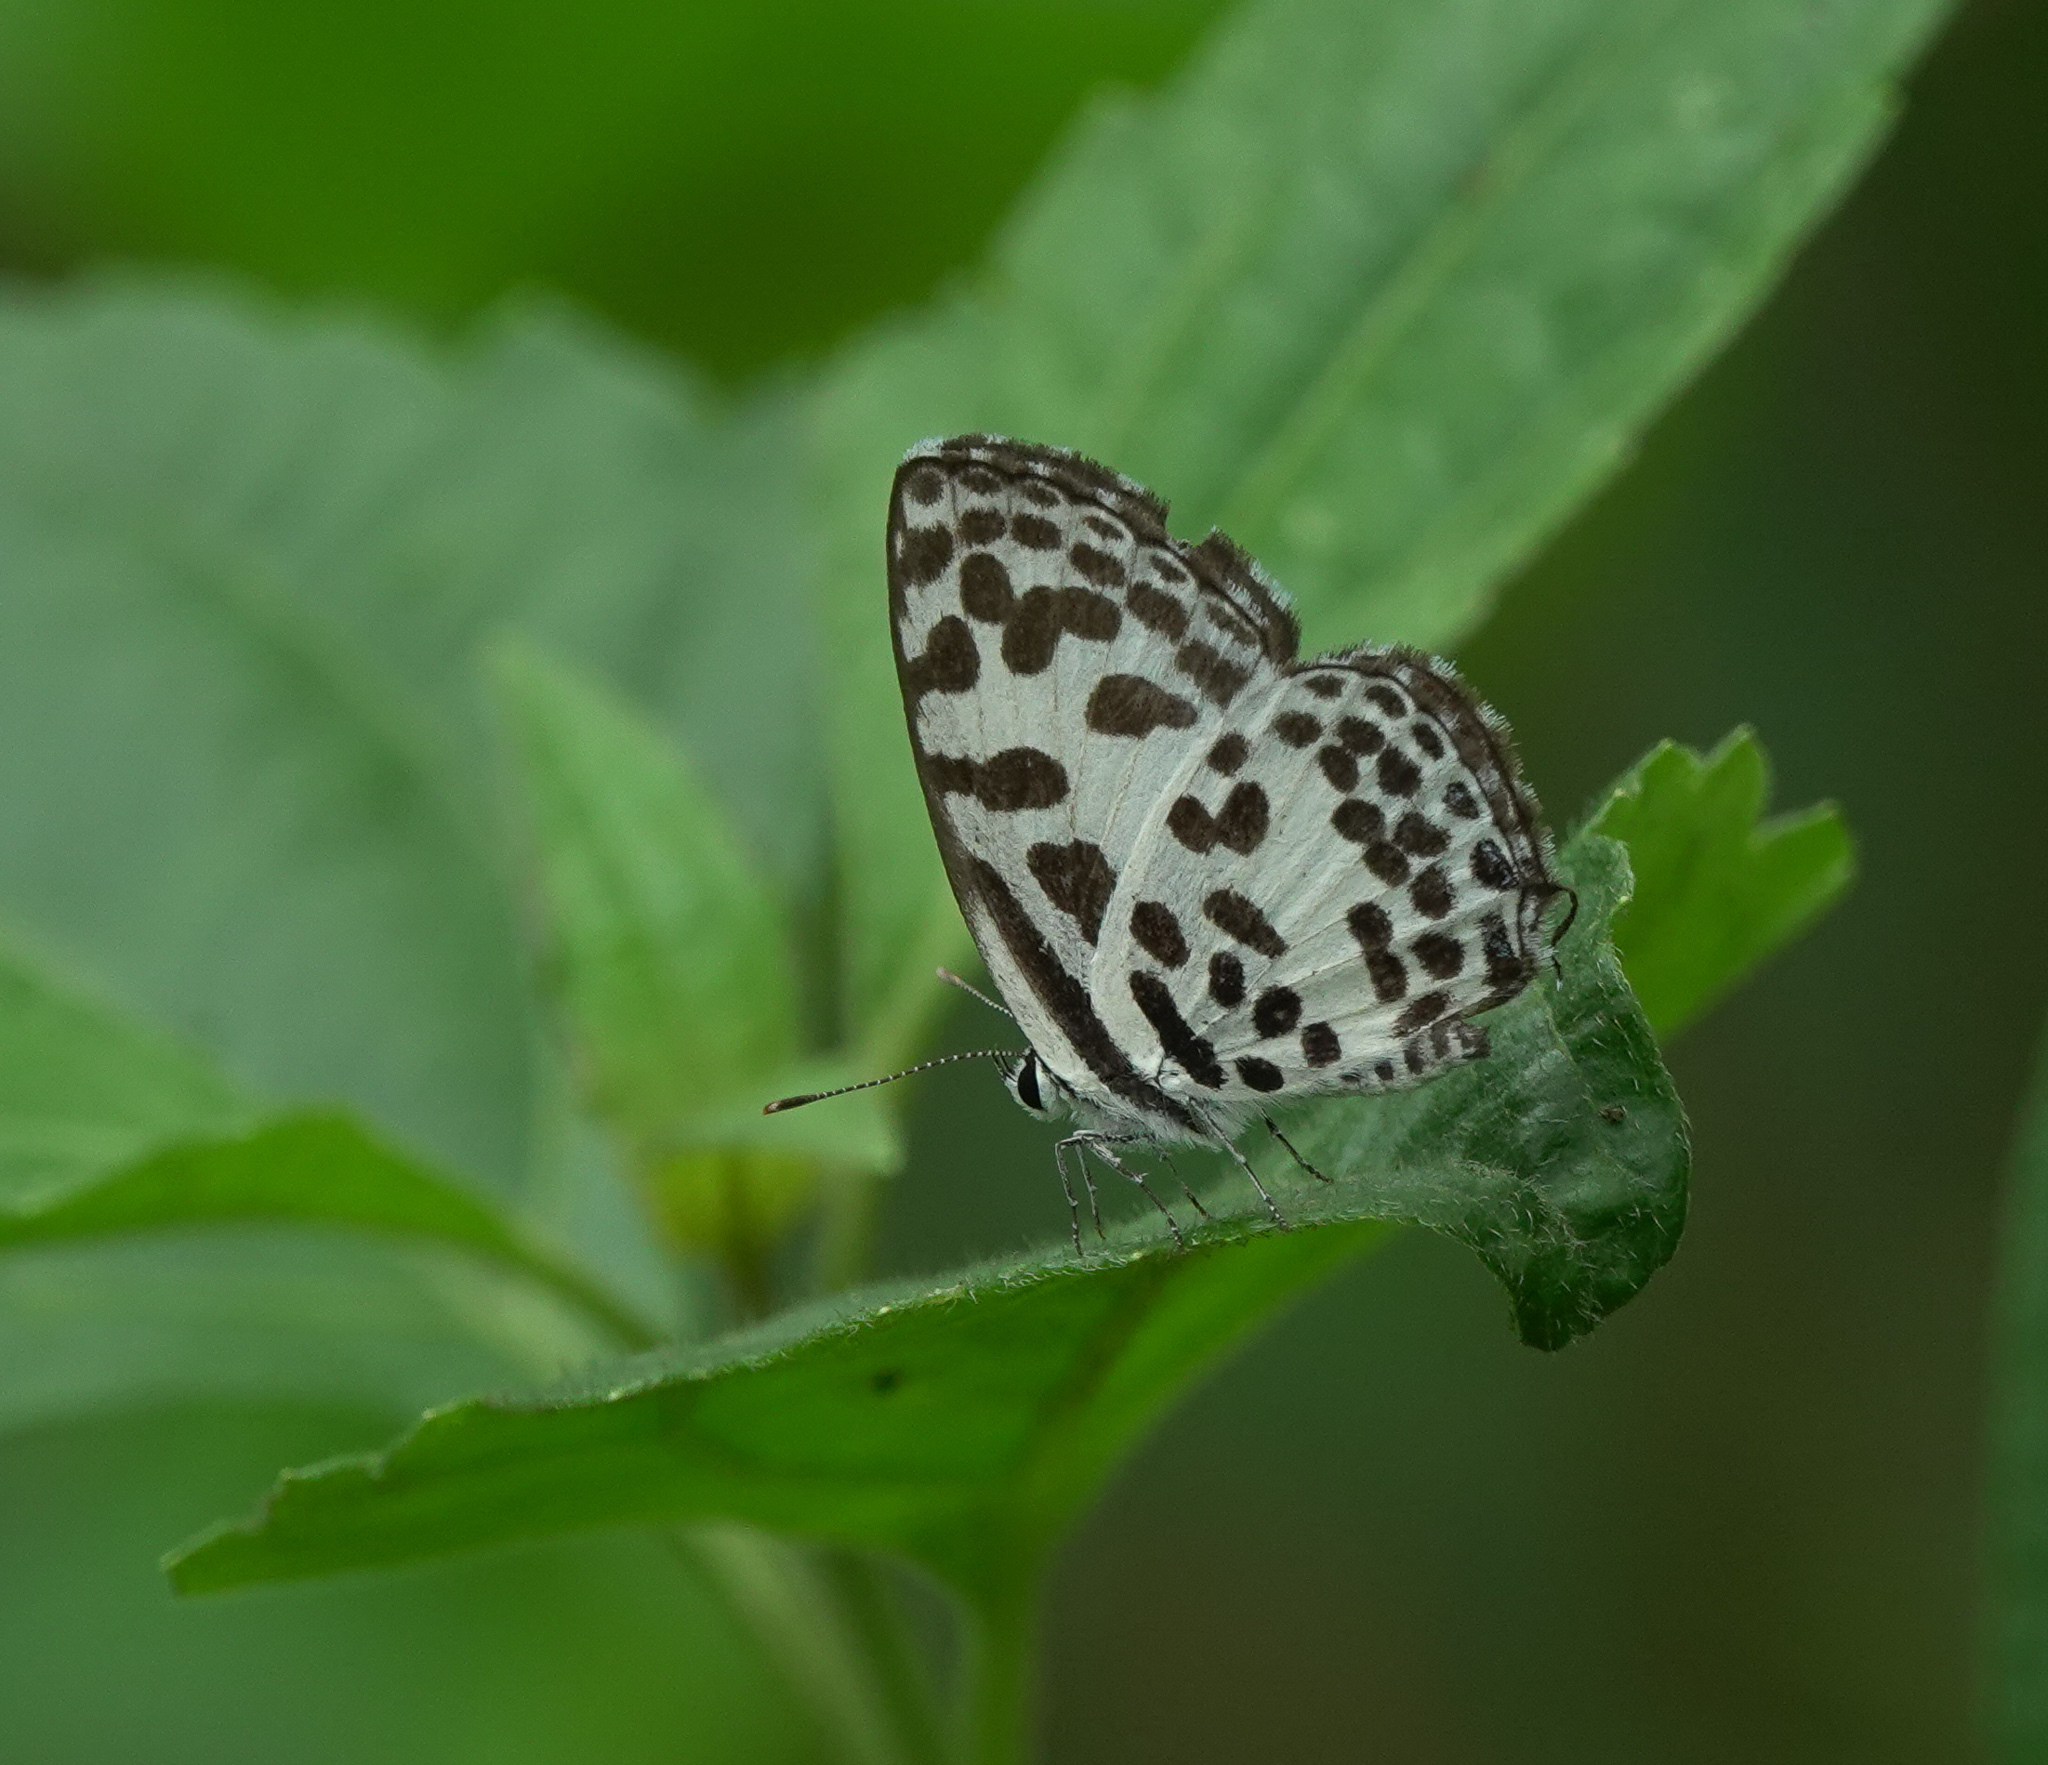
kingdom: Animalia
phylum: Arthropoda
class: Insecta
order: Lepidoptera
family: Lycaenidae
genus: Castalius
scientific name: Castalius rosimon
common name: Common pierrot
